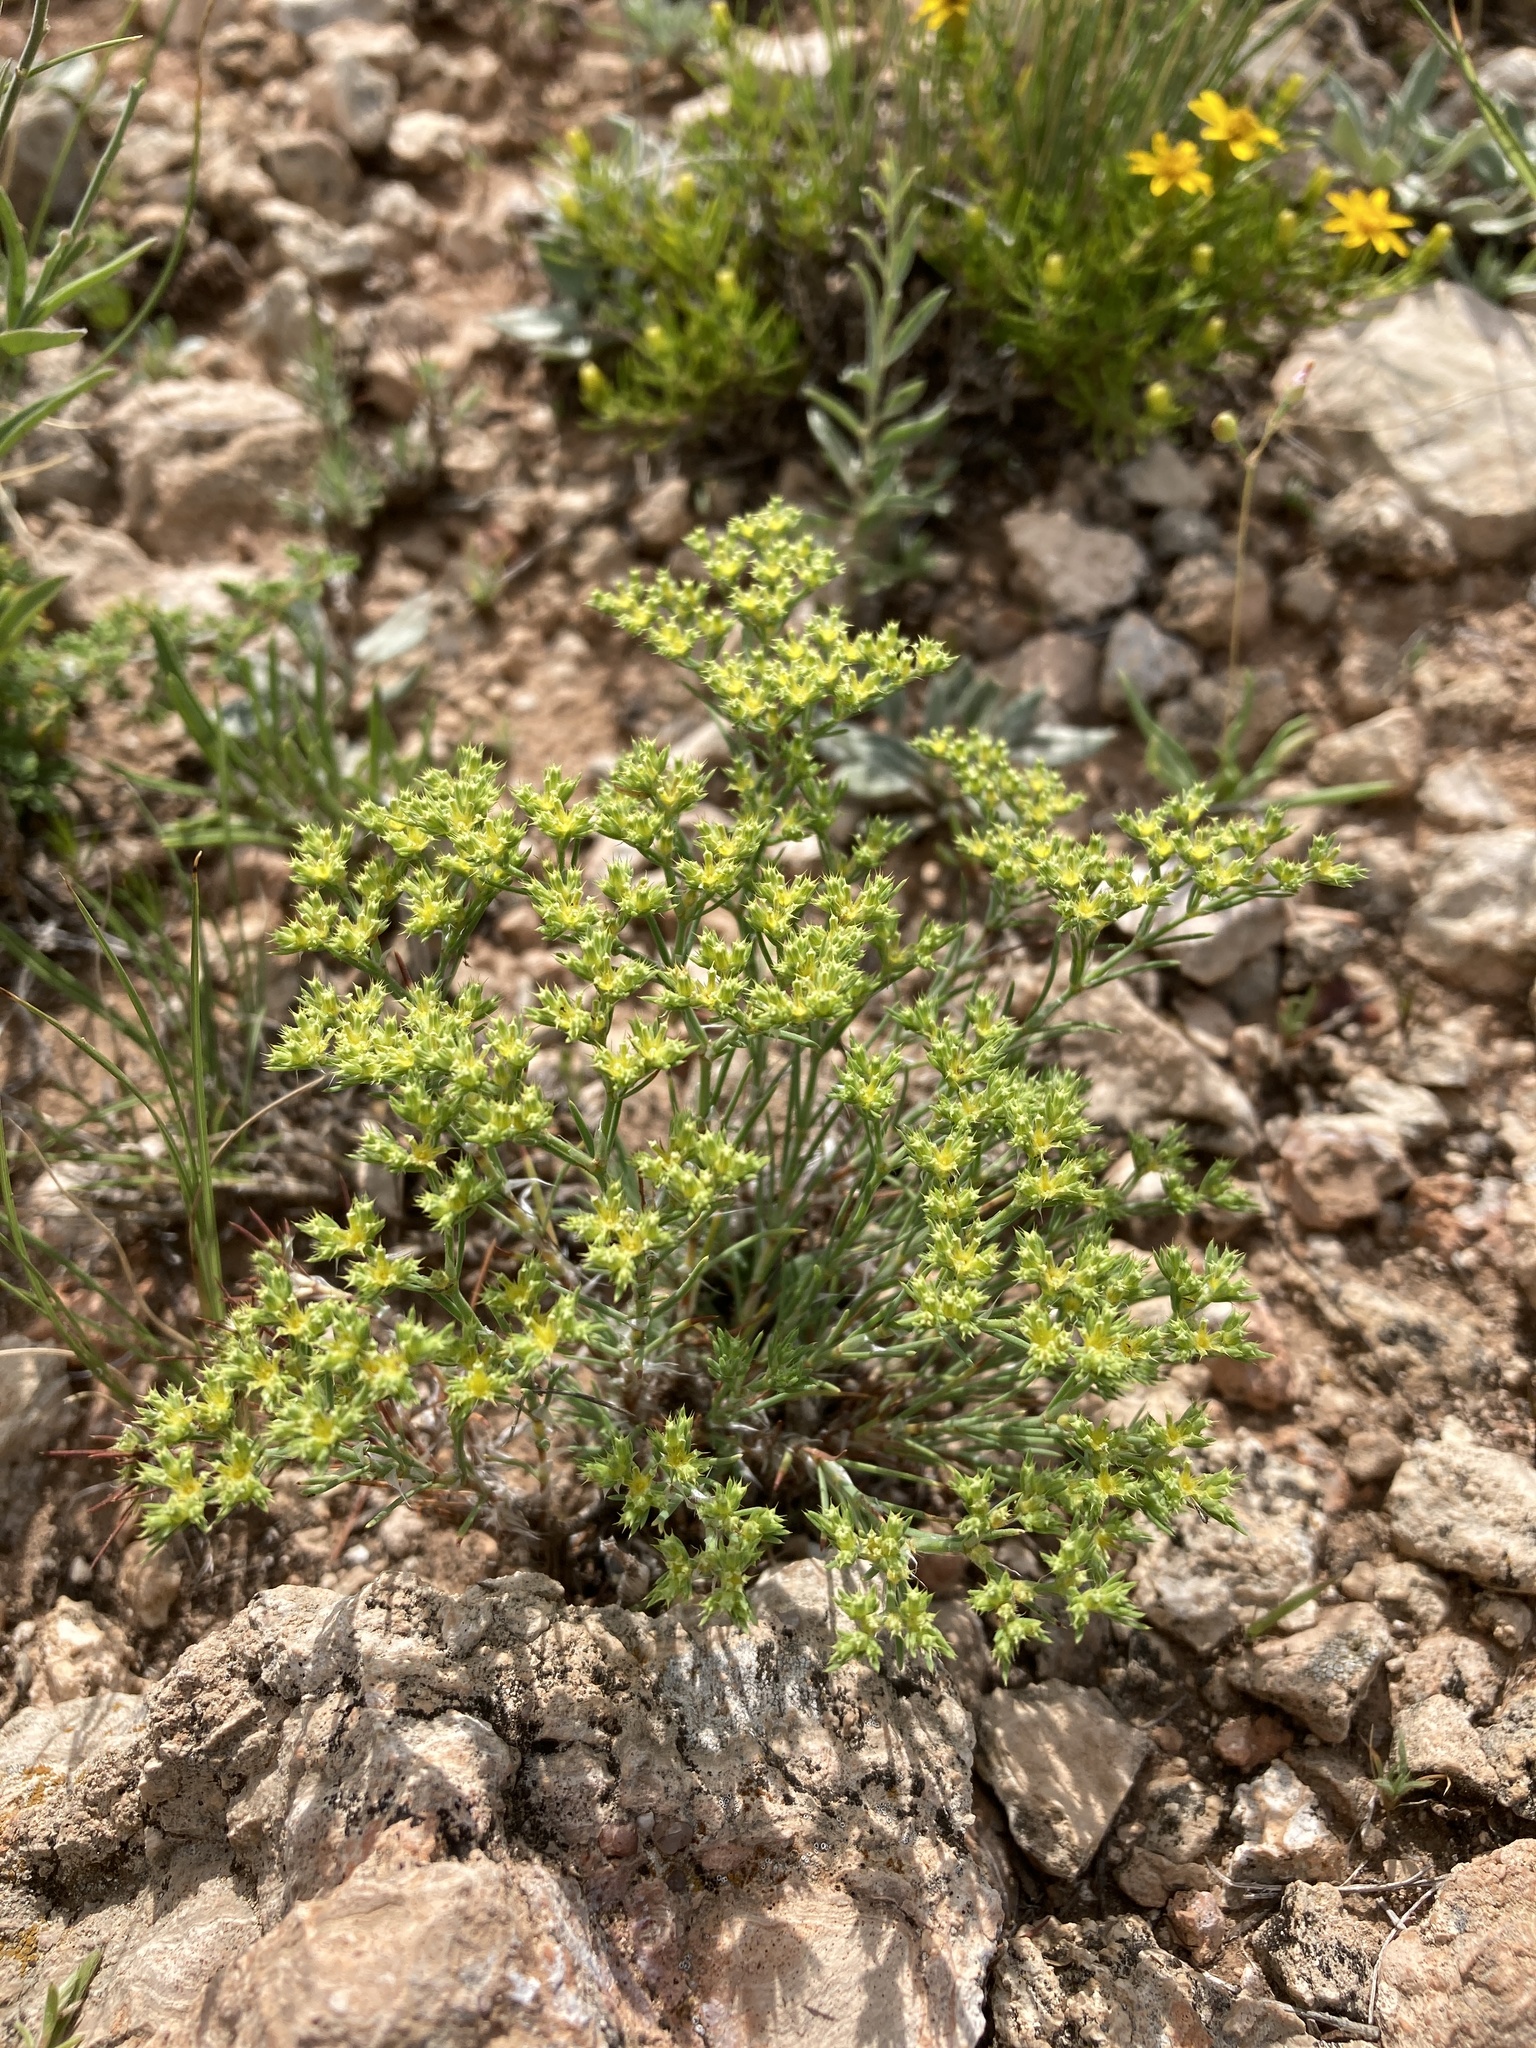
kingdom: Plantae
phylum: Tracheophyta
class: Magnoliopsida
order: Caryophyllales
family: Caryophyllaceae
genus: Paronychia
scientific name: Paronychia jamesii
